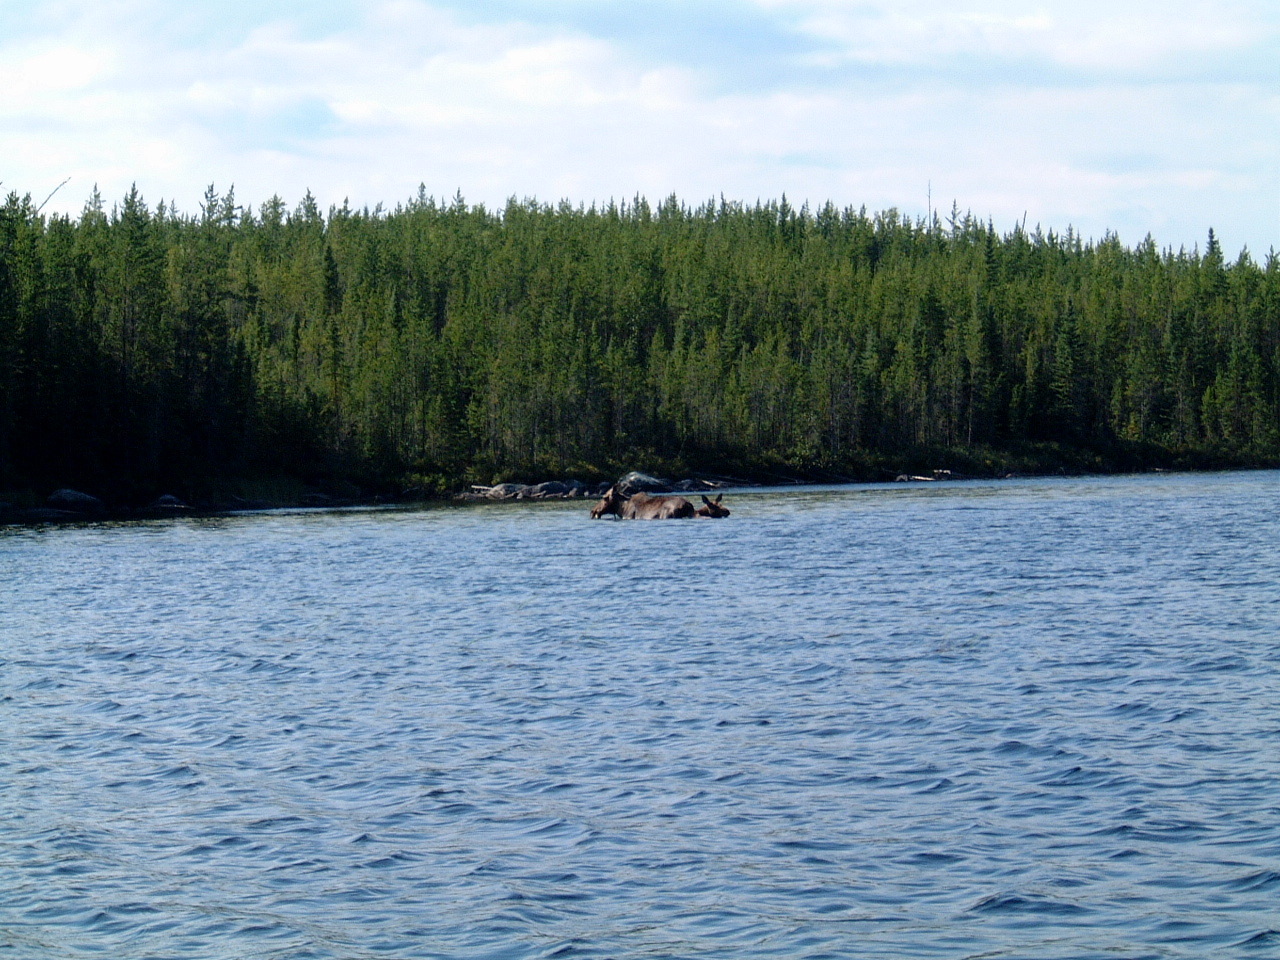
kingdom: Animalia
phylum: Chordata
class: Mammalia
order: Artiodactyla
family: Cervidae
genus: Alces
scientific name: Alces alces
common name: Moose
